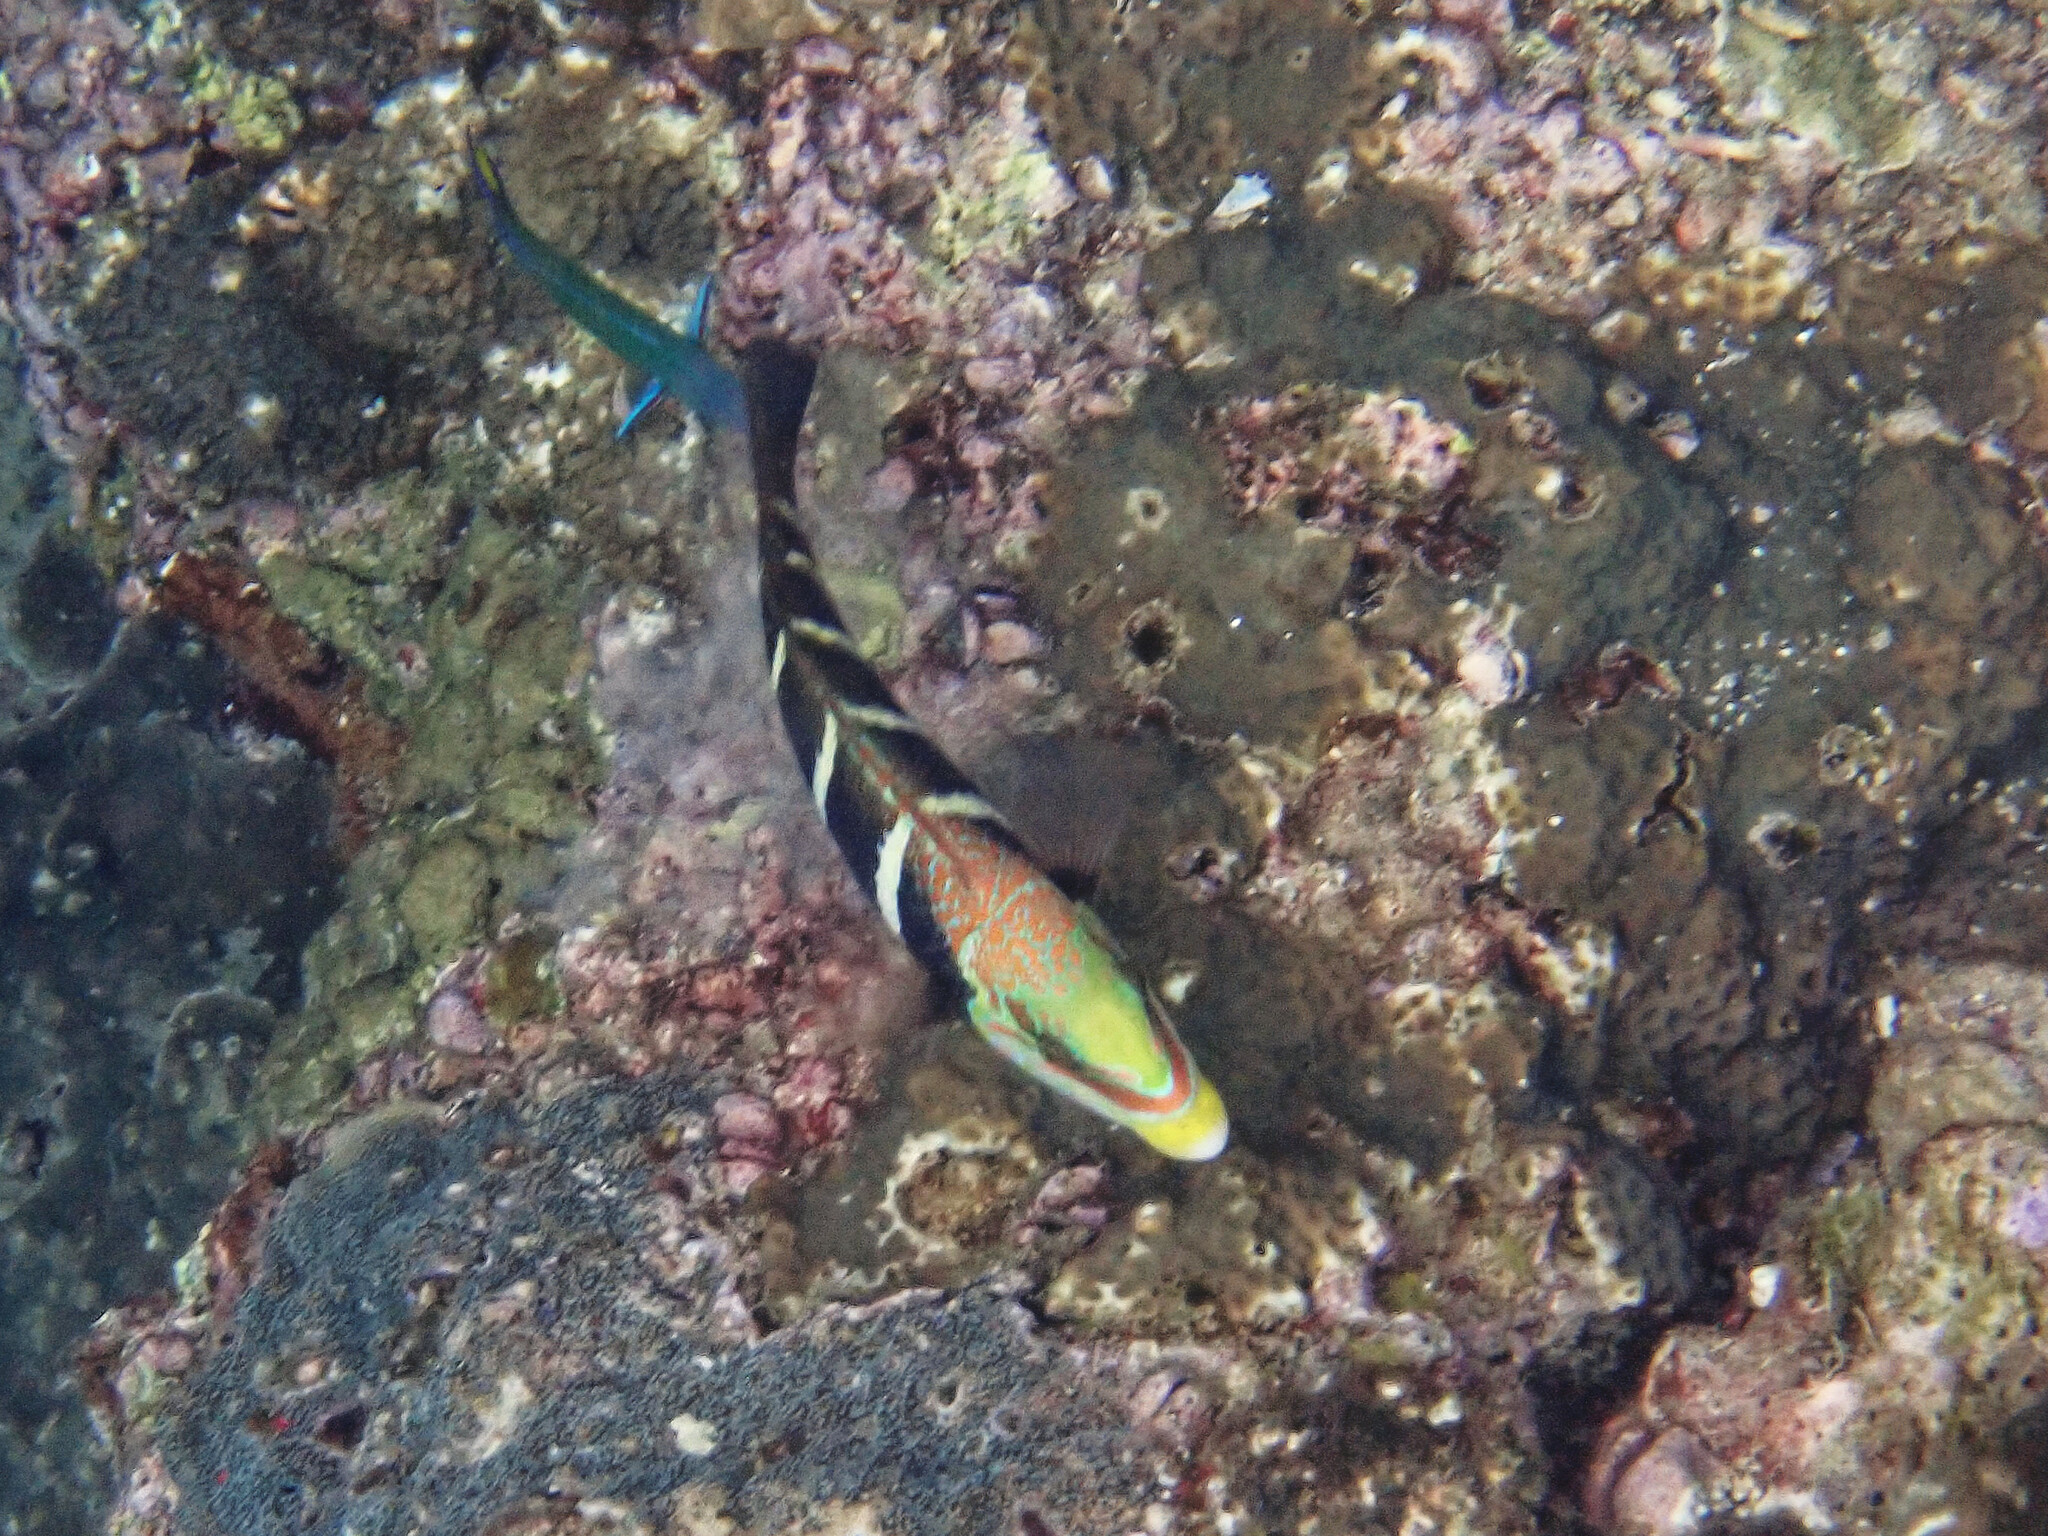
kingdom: Animalia
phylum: Chordata
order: Perciformes
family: Labridae
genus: Hemigymnus
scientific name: Hemigymnus fasciatus
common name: Barred thicklip
